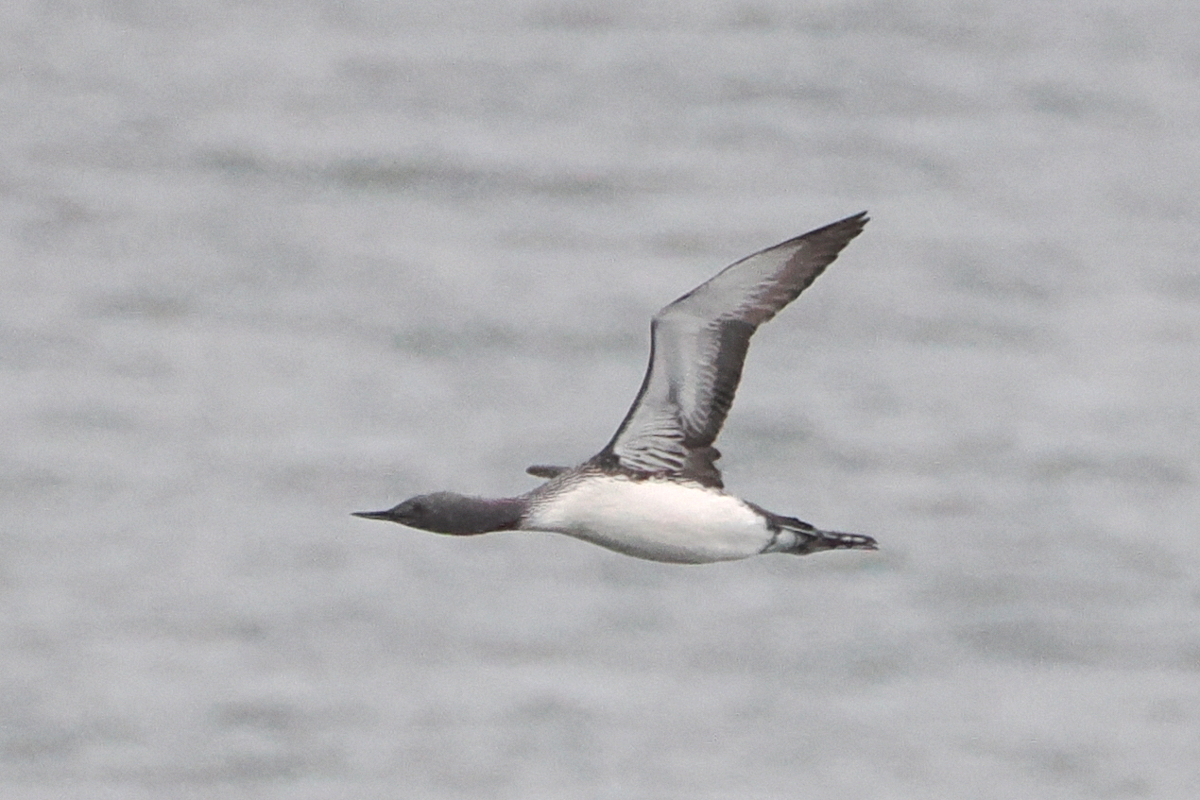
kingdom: Animalia
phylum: Chordata
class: Aves
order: Gaviiformes
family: Gaviidae
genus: Gavia
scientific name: Gavia stellata
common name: Red-throated loon
